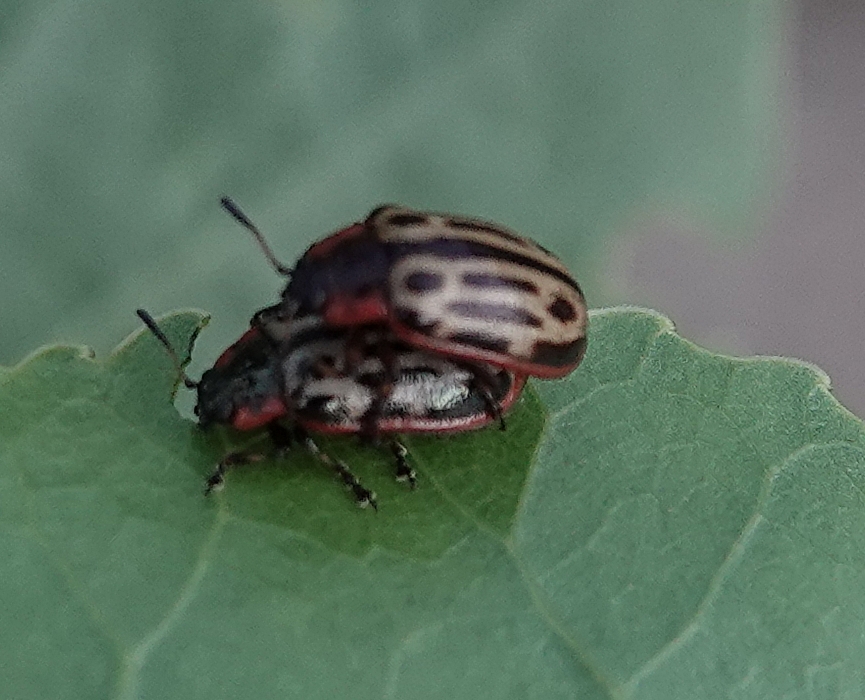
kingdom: Animalia
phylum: Arthropoda
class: Insecta
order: Coleoptera
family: Chrysomelidae
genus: Aethiopocassis
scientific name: Aethiopocassis scripta
